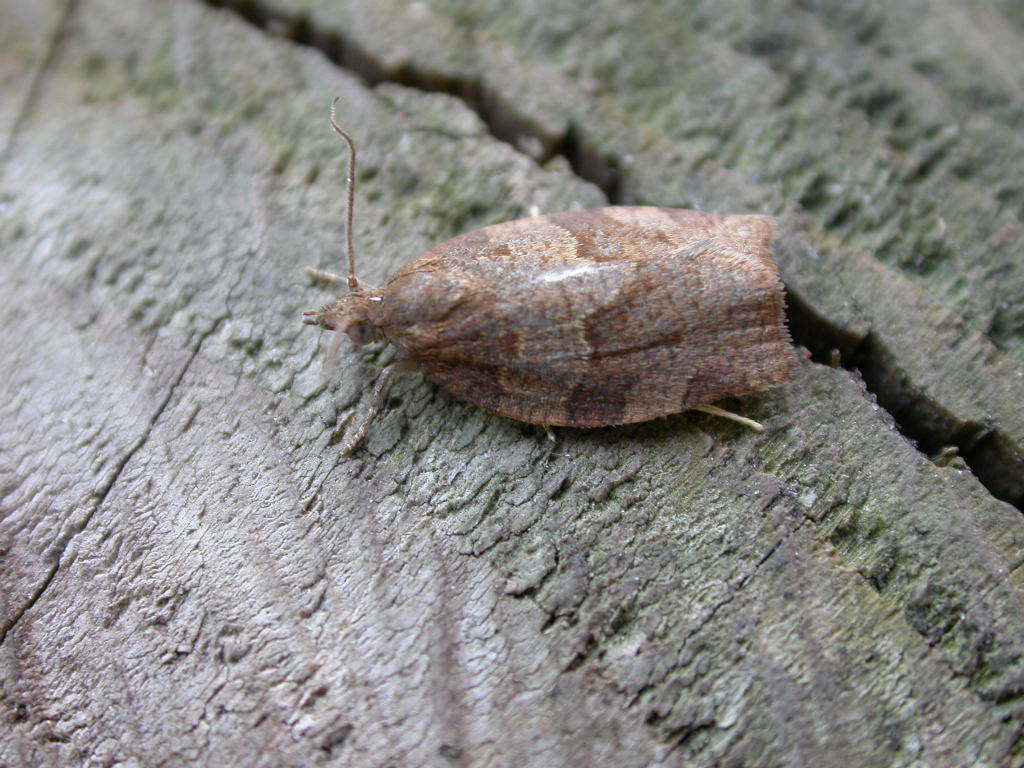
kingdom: Animalia
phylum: Arthropoda
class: Insecta
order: Lepidoptera
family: Tortricidae
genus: Pandemis
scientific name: Pandemis heparana
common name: Dark fruit-tree tortrix
